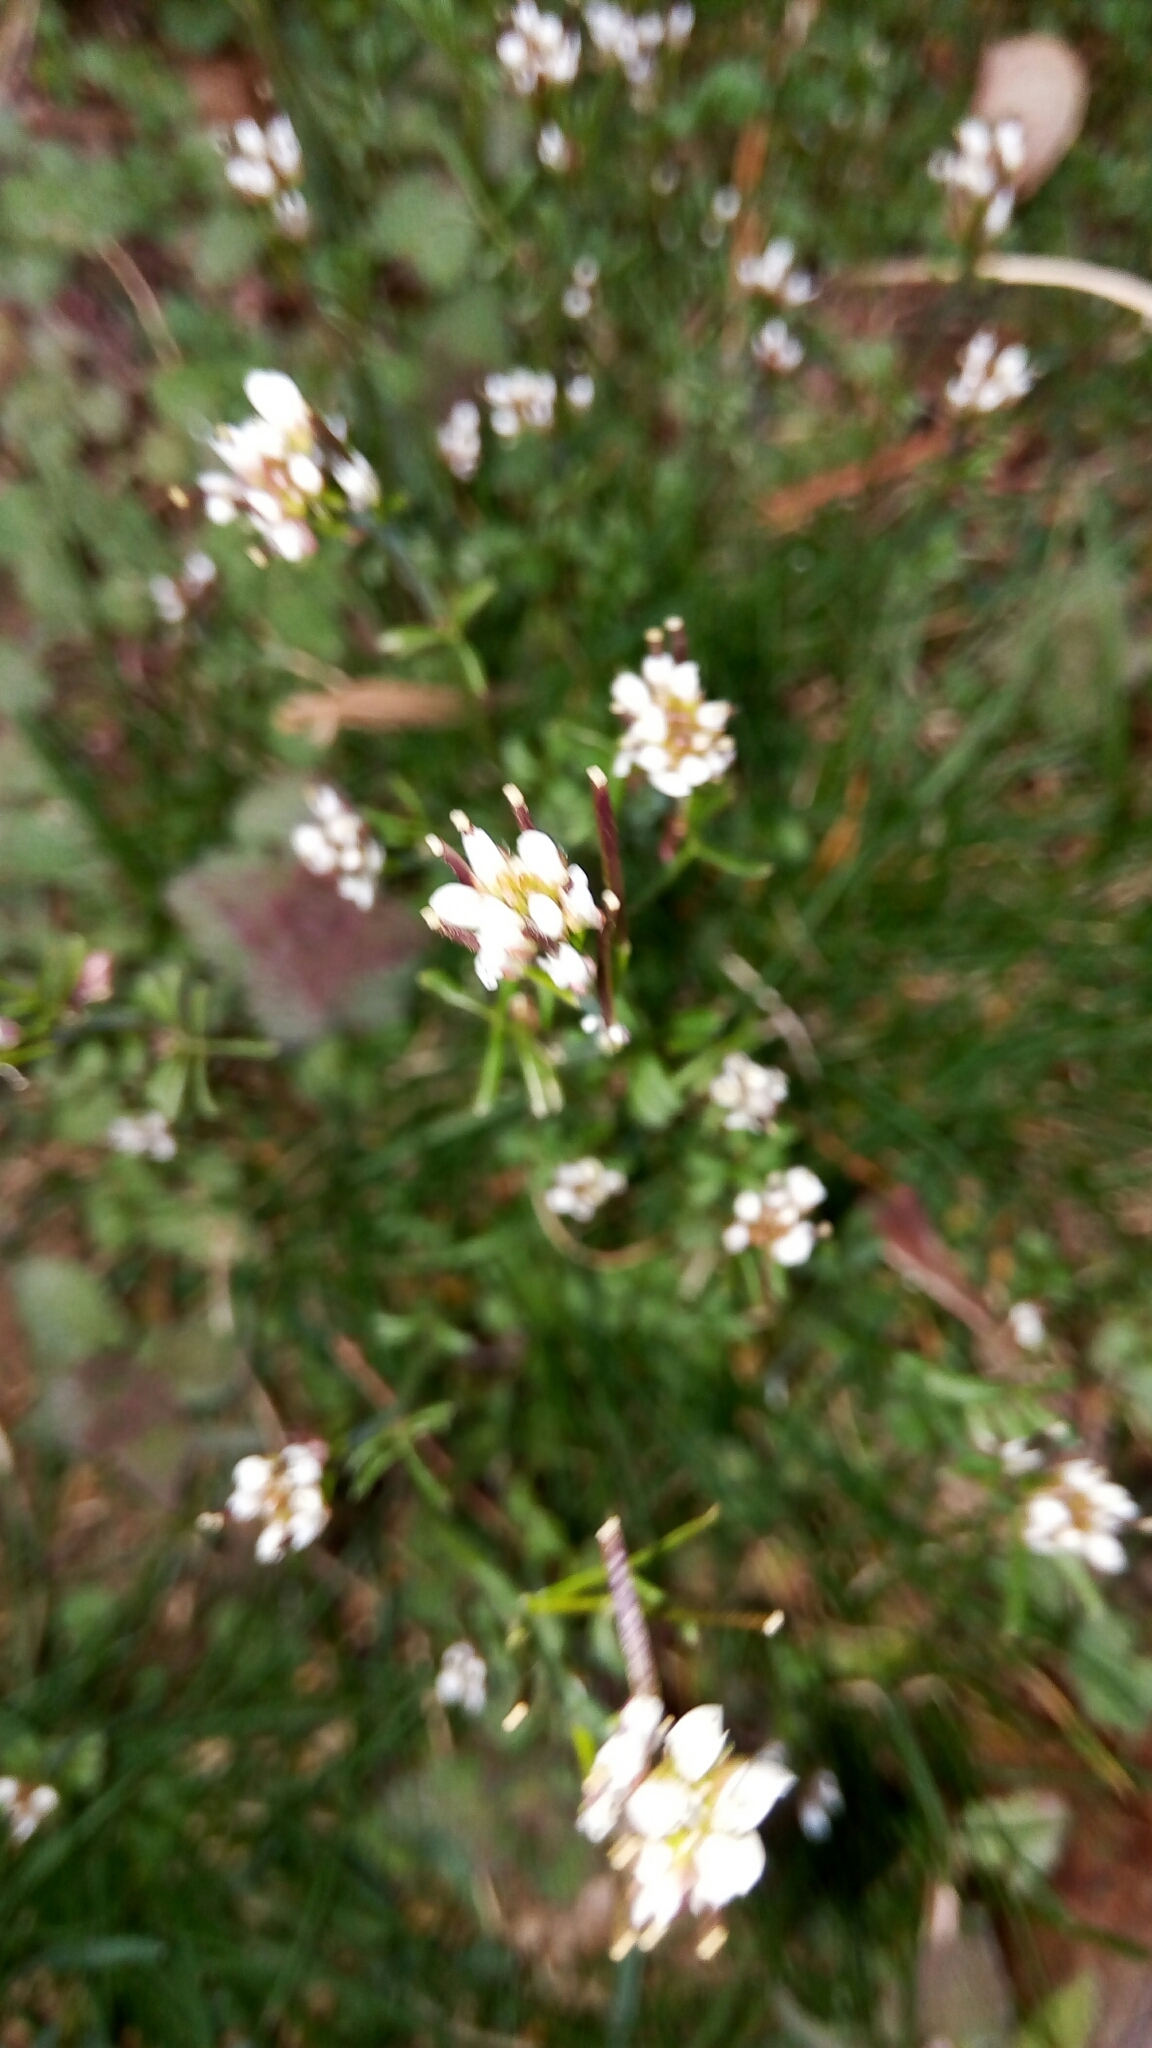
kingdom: Plantae
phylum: Tracheophyta
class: Magnoliopsida
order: Brassicales
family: Brassicaceae
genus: Cardamine
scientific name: Cardamine hirsuta
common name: Hairy bittercress
